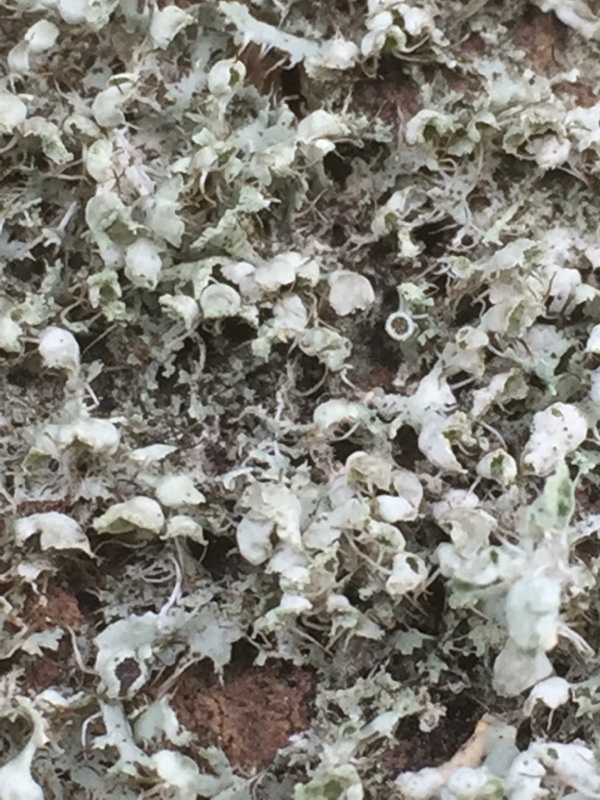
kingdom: Fungi
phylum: Ascomycota
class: Lecanoromycetes
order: Caliciales
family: Physciaceae
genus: Physcia
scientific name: Physcia adscendens
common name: Hooded rosette lichen
